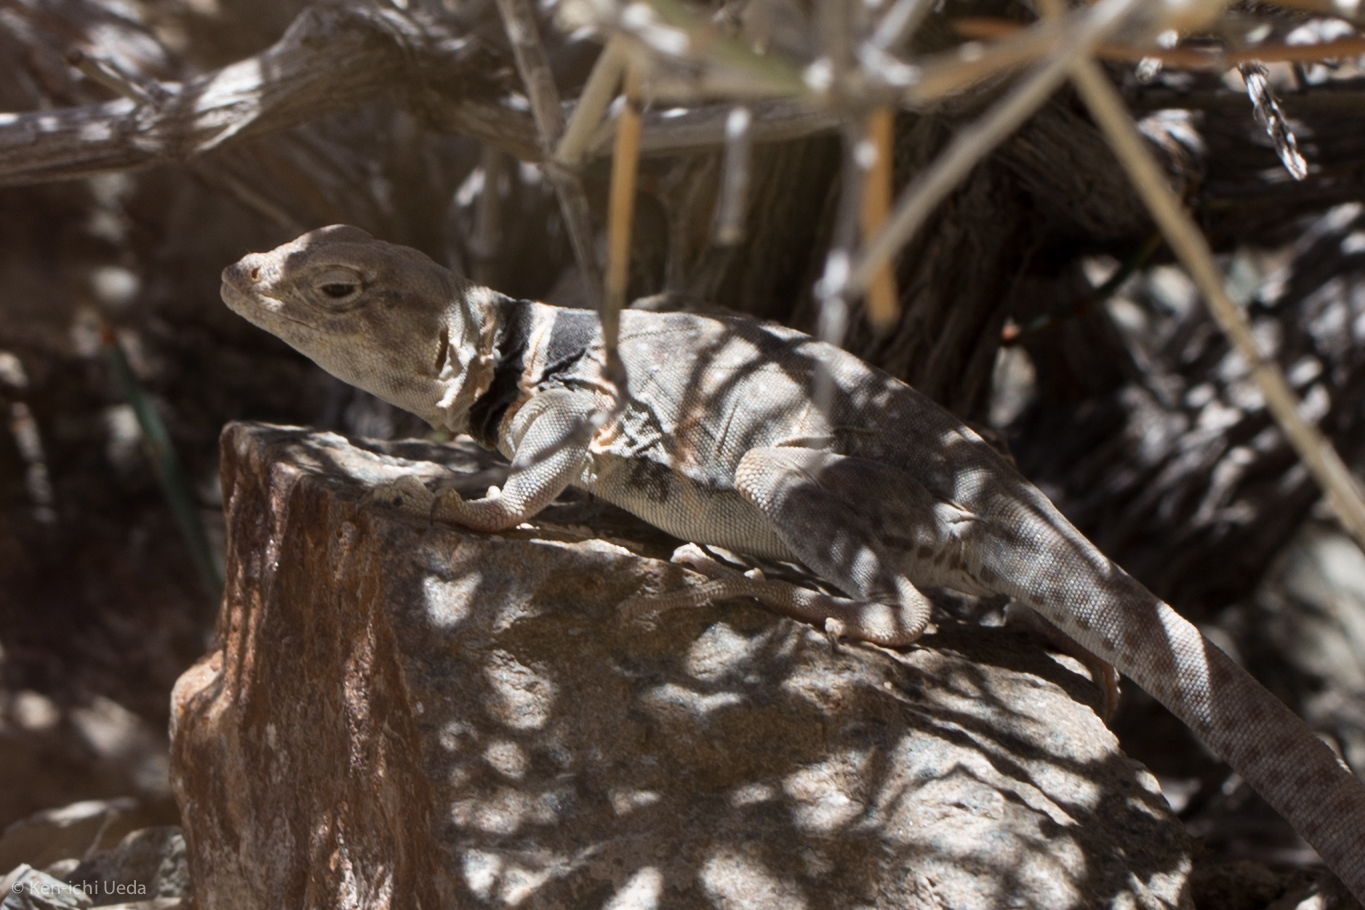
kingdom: Animalia
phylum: Chordata
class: Squamata
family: Crotaphytidae
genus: Crotaphytus
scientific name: Crotaphytus bicinctores
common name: Mojave black-collared lizard
